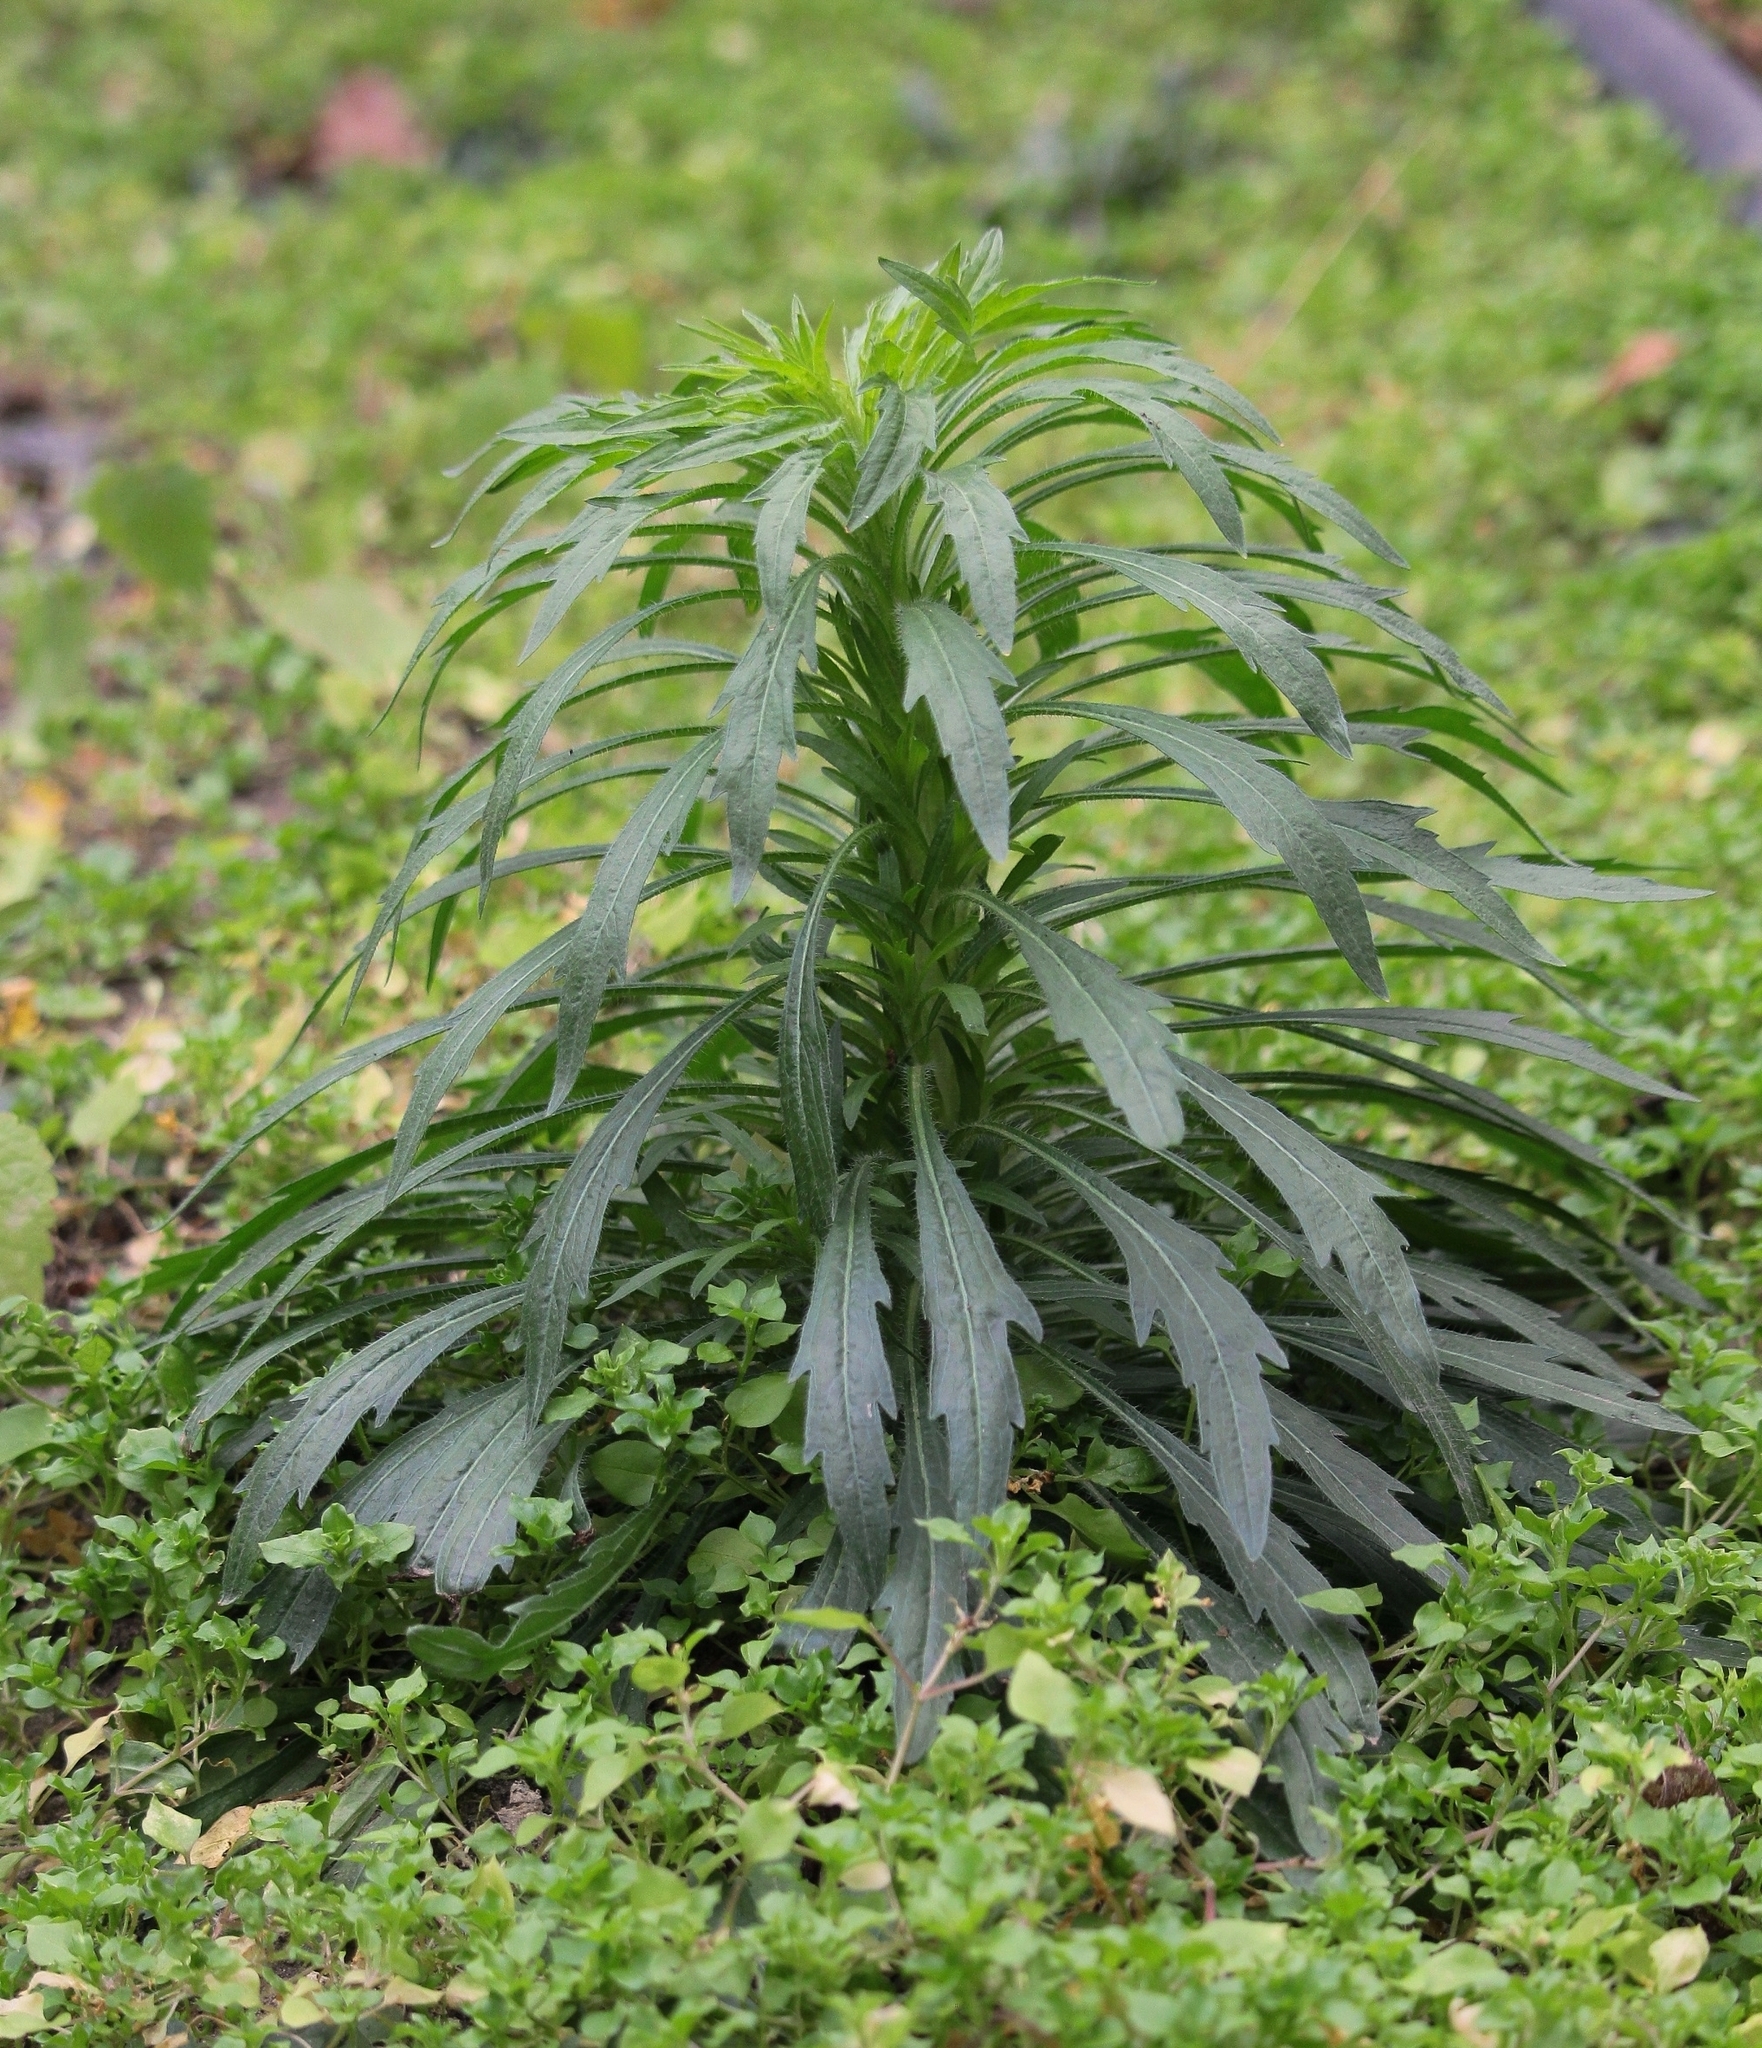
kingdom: Plantae
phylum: Tracheophyta
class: Magnoliopsida
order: Asterales
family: Asteraceae
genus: Erigeron
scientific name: Erigeron canadensis
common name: Canadian fleabane
